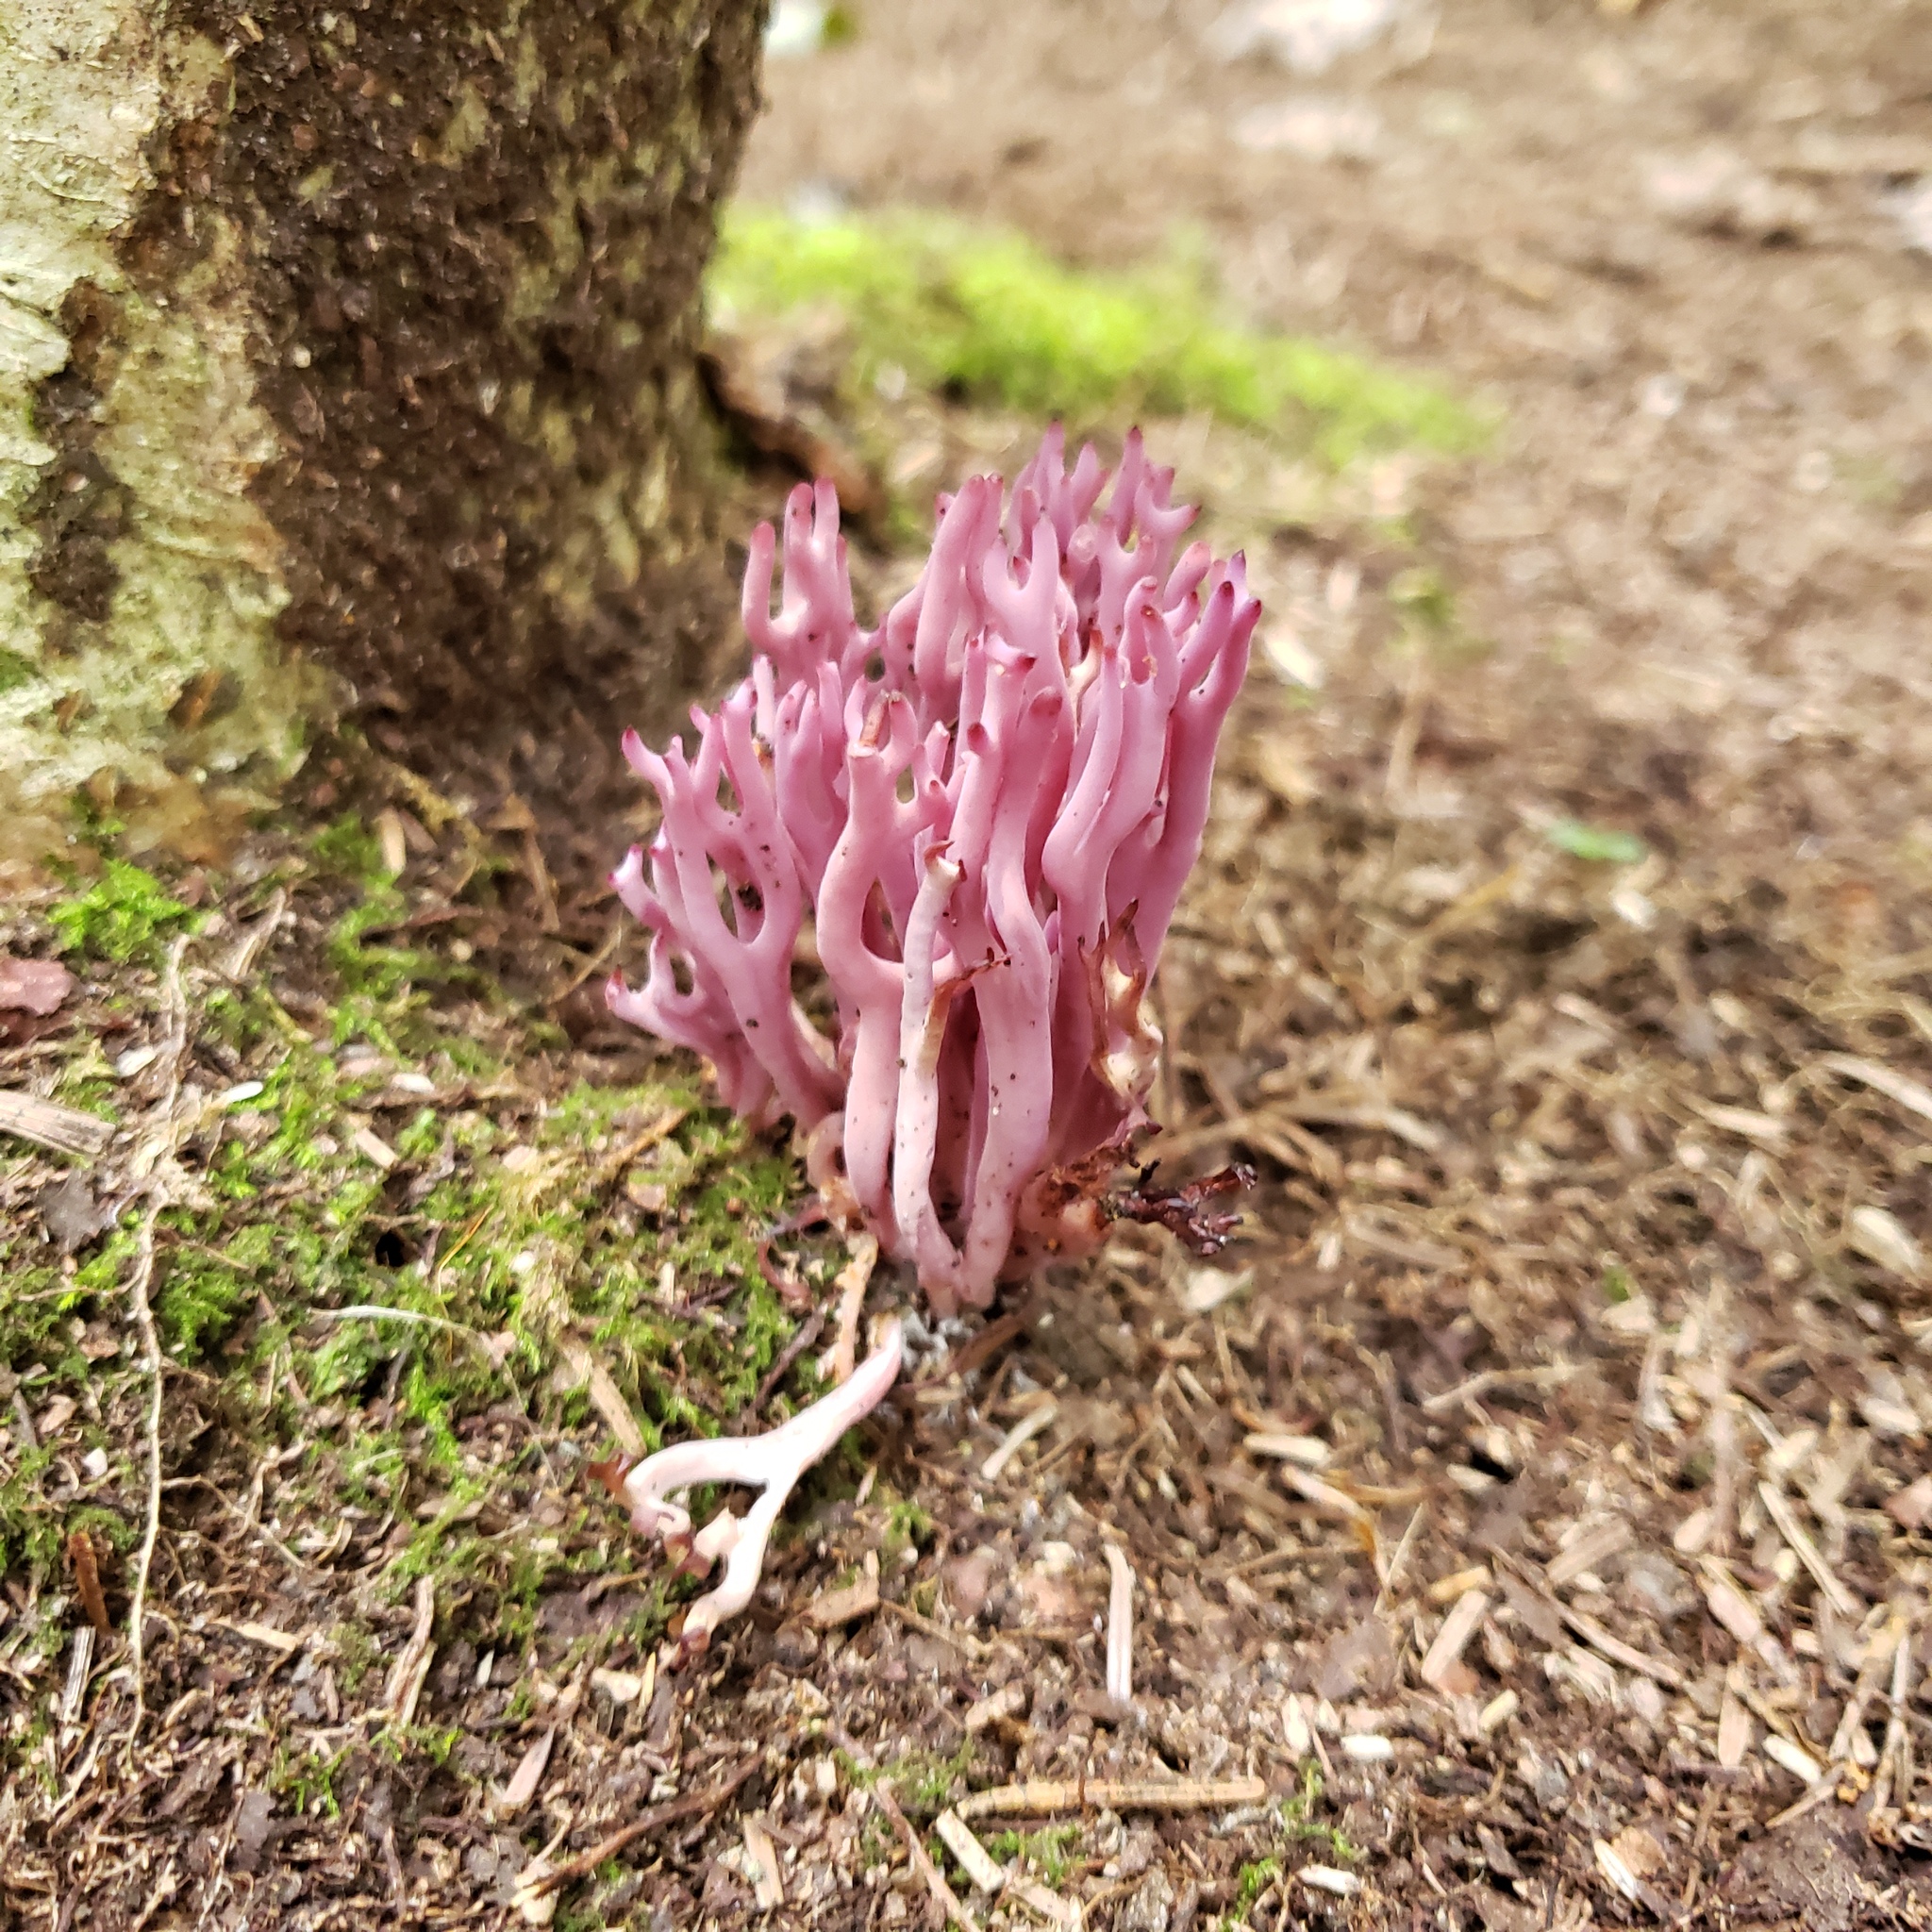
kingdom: Fungi
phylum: Basidiomycota
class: Agaricomycetes
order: Agaricales
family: Clavariaceae
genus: Clavaria
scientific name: Clavaria zollingeri
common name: Violet coral
